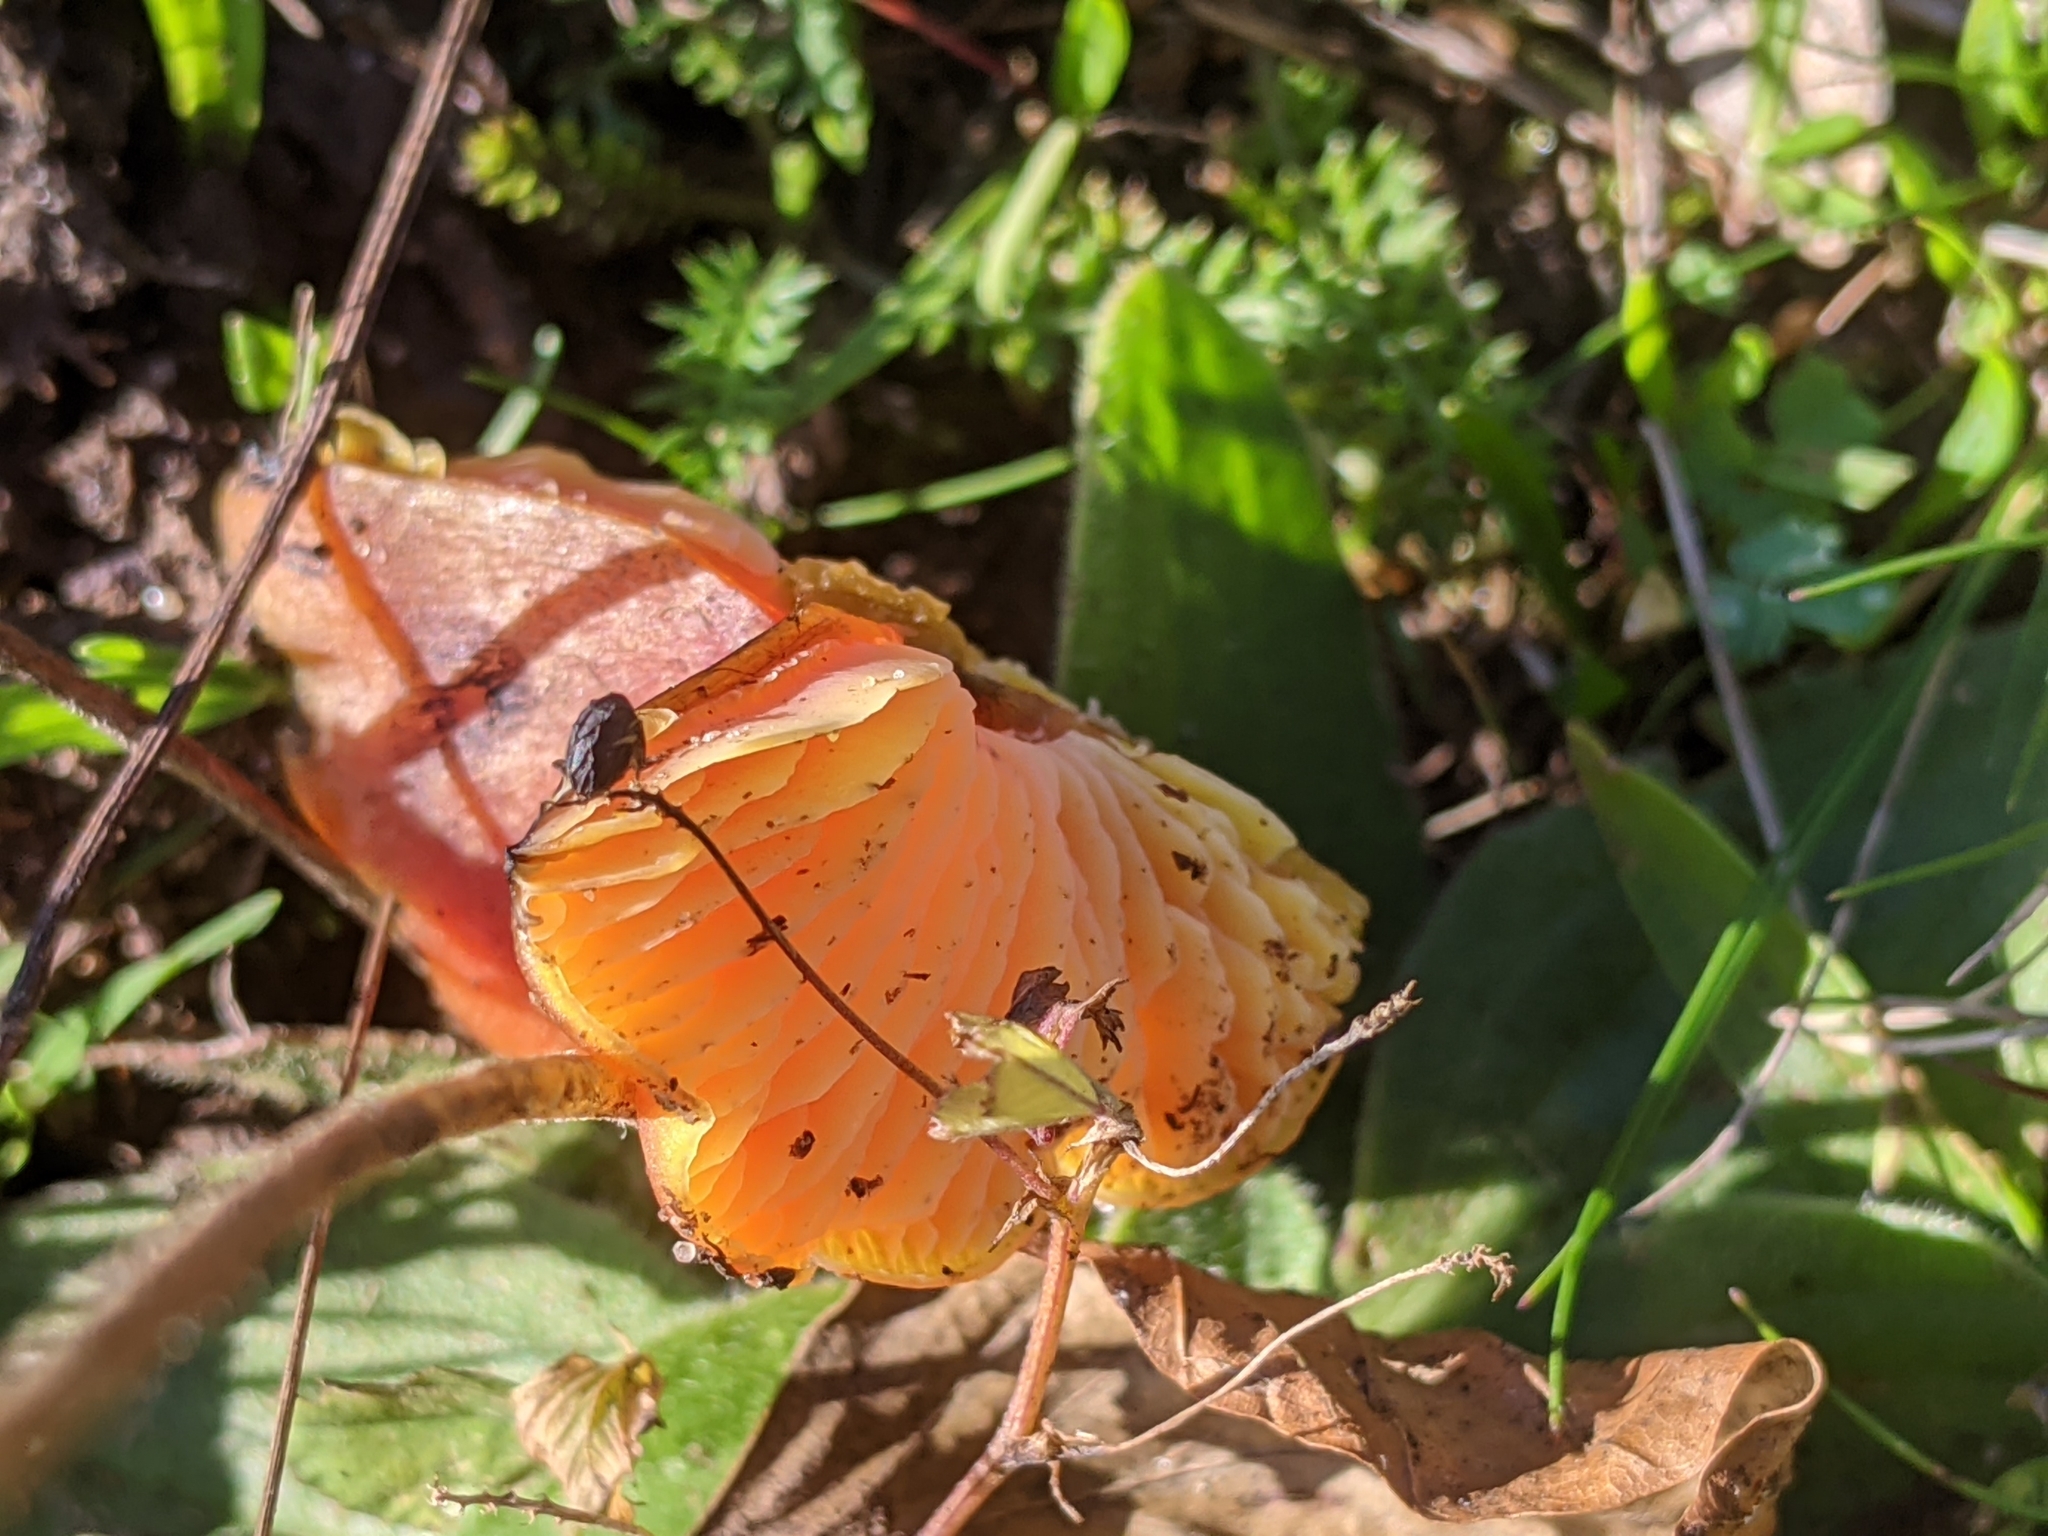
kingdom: Fungi
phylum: Basidiomycota
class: Agaricomycetes
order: Agaricales
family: Hygrophoraceae
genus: Hygrocybe
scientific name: Hygrocybe conica
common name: Blackening wax-cap
